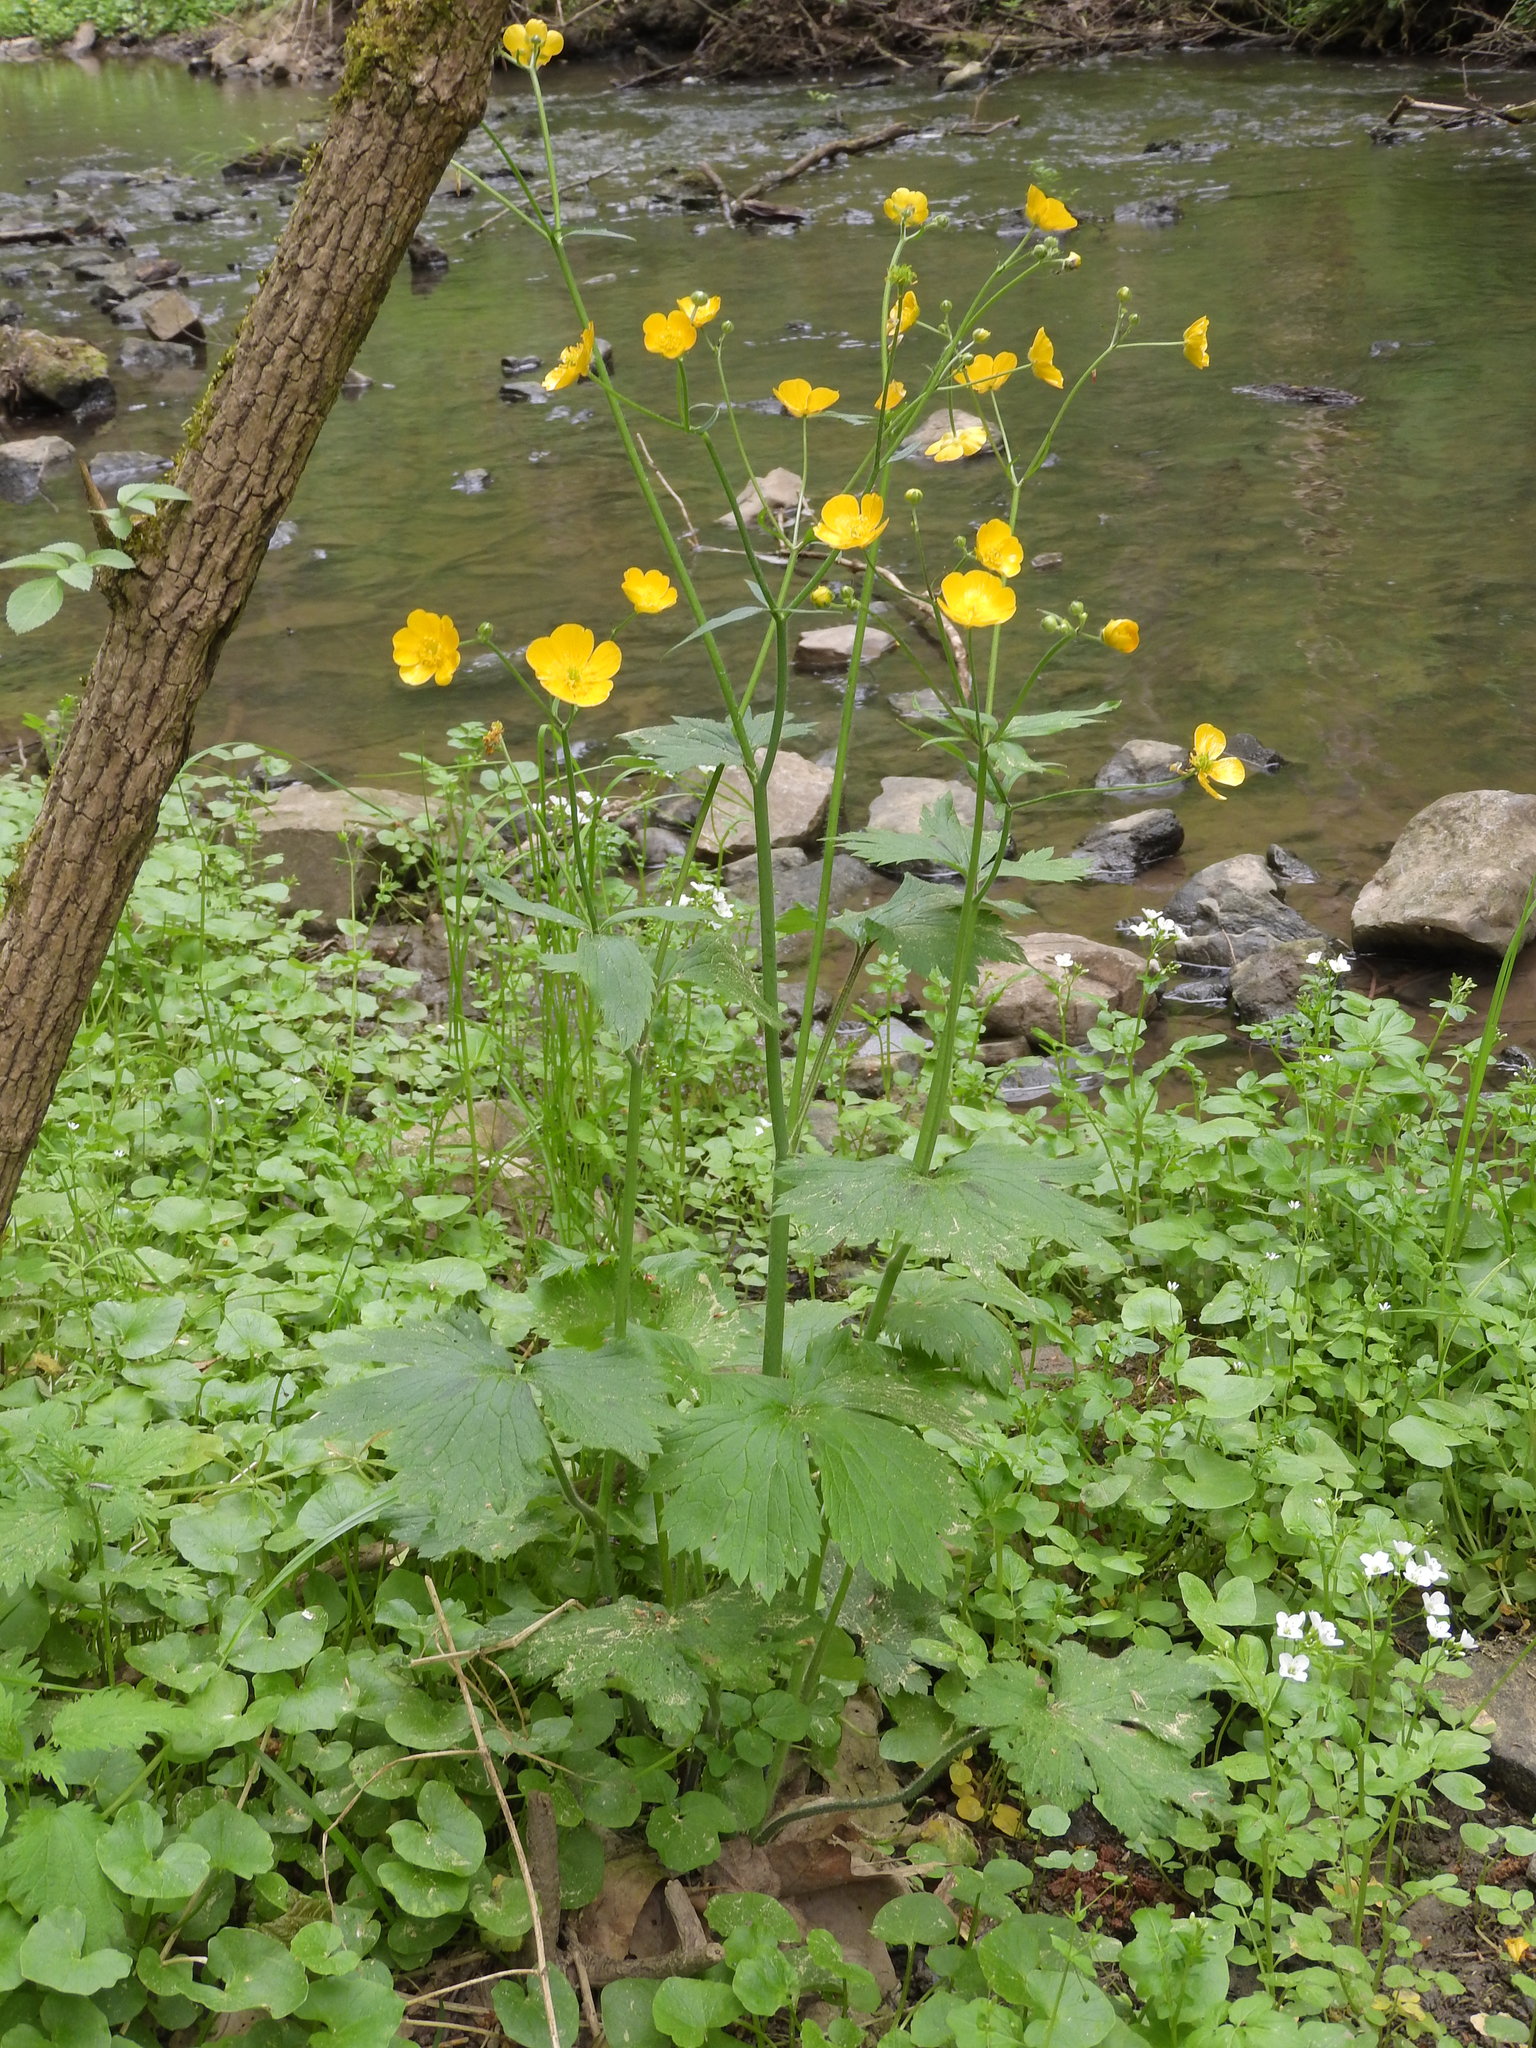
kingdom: Plantae
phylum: Tracheophyta
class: Magnoliopsida
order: Ranunculales
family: Ranunculaceae
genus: Ranunculus
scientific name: Ranunculus lanuginosus
